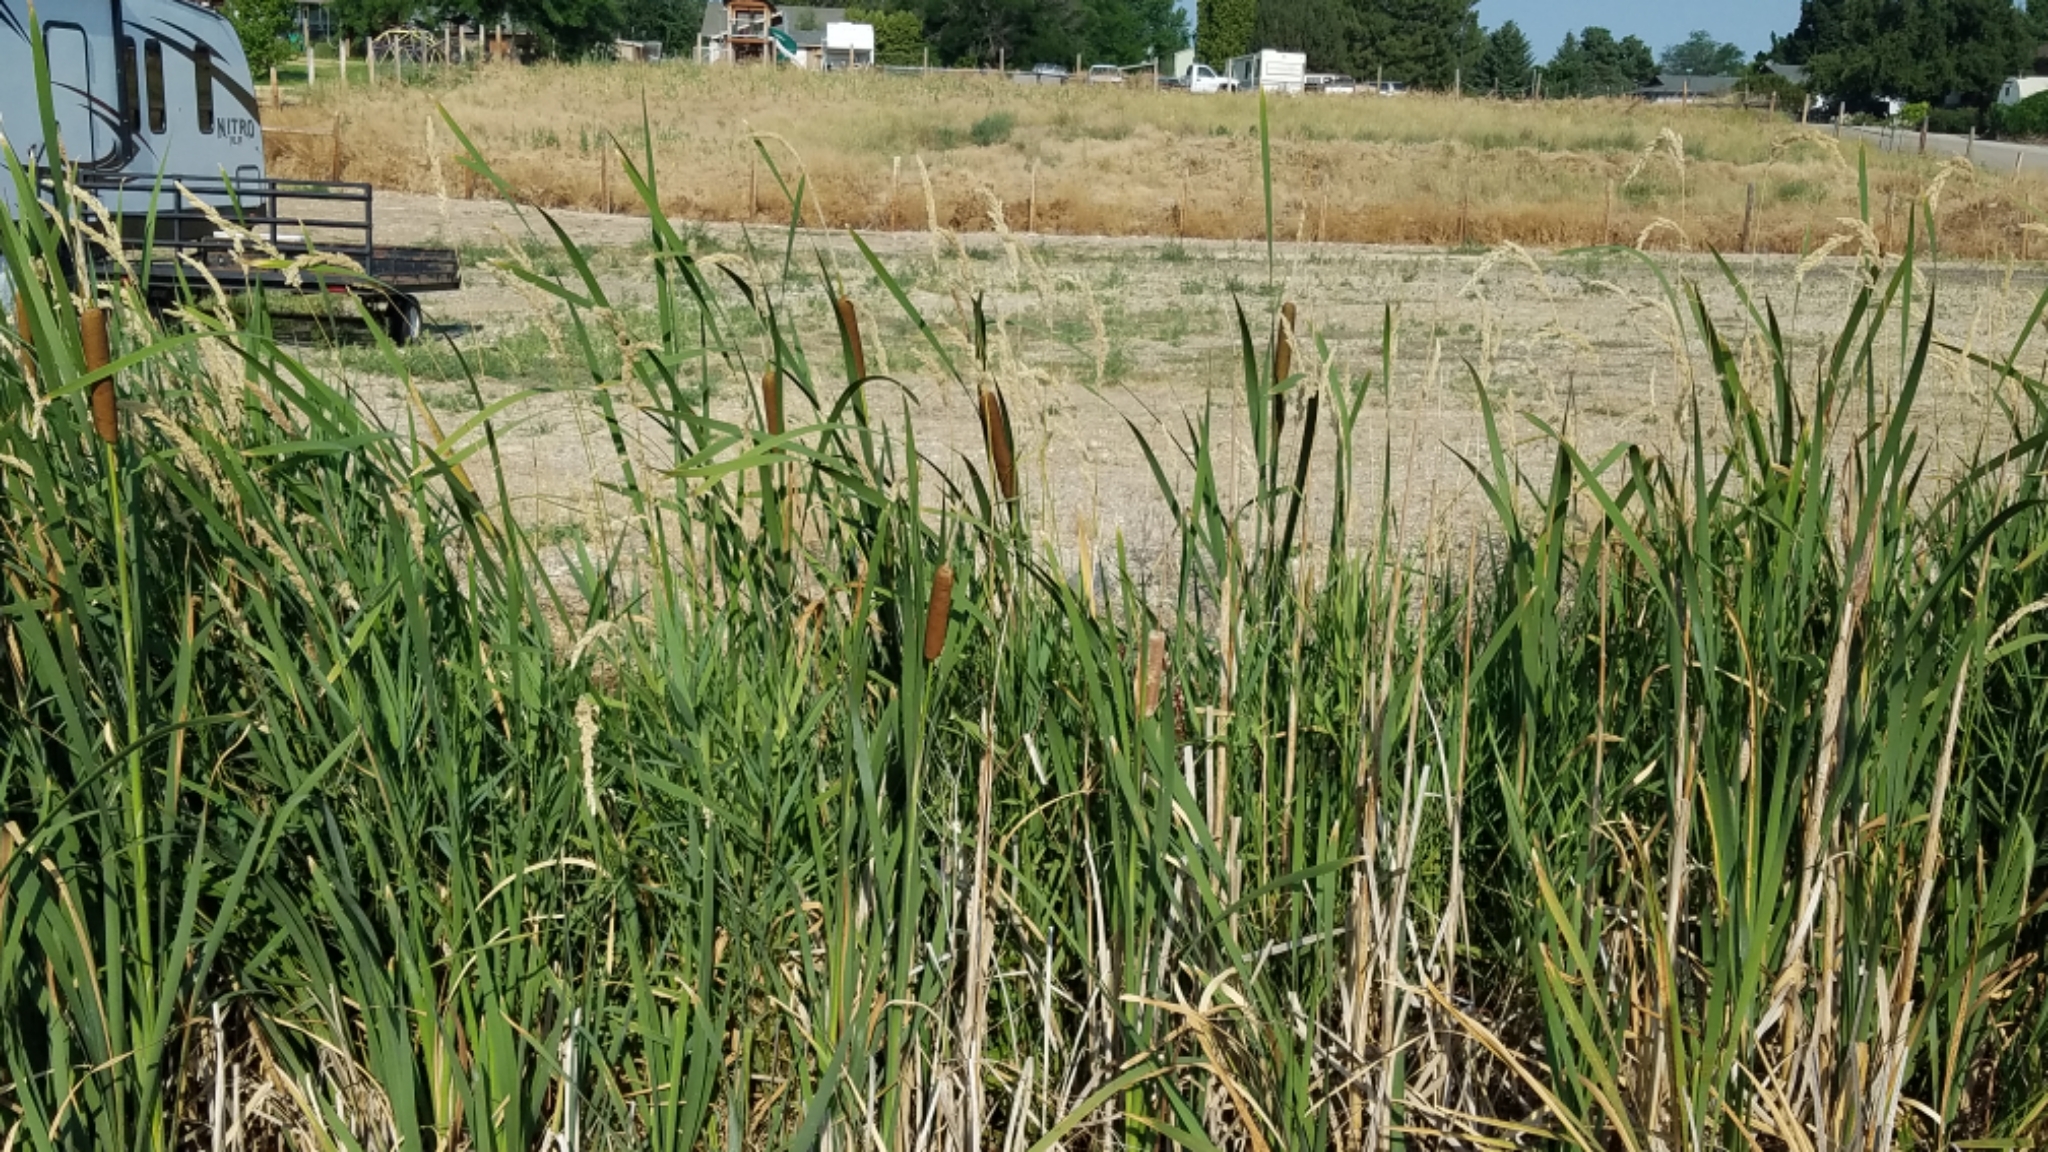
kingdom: Plantae
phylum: Tracheophyta
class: Liliopsida
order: Poales
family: Typhaceae
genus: Typha
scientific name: Typha latifolia
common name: Broadleaf cattail
